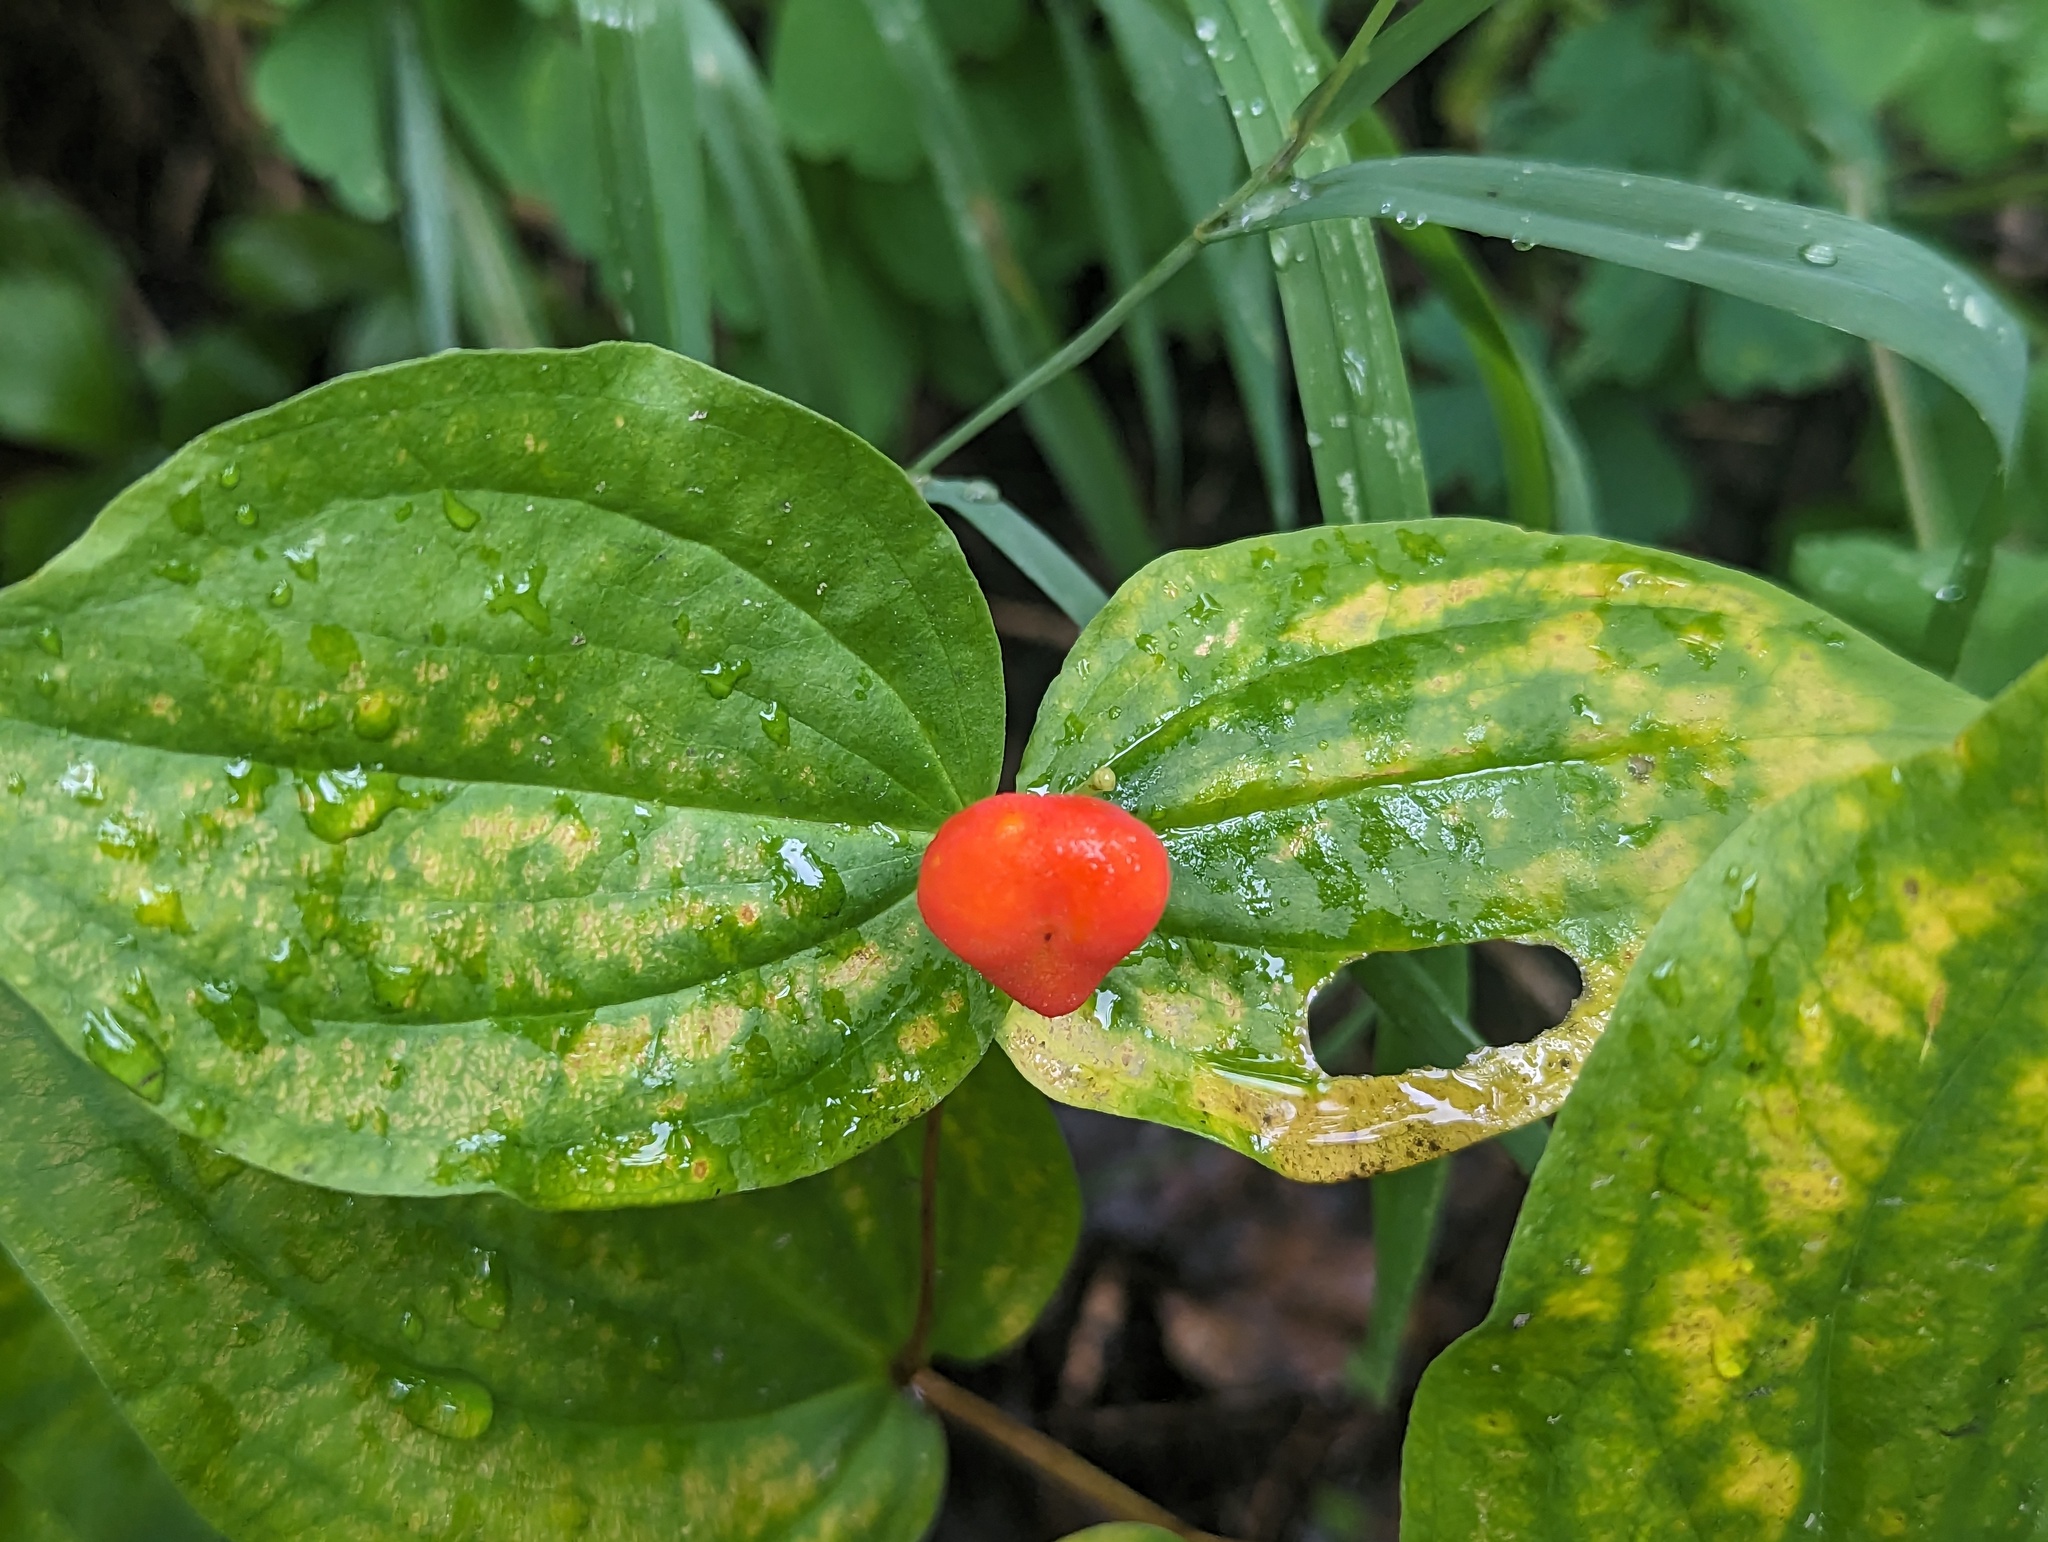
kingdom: Plantae
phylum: Tracheophyta
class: Liliopsida
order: Liliales
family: Liliaceae
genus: Prosartes
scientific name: Prosartes trachycarpa
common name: Rough-fruit fairy-bells
